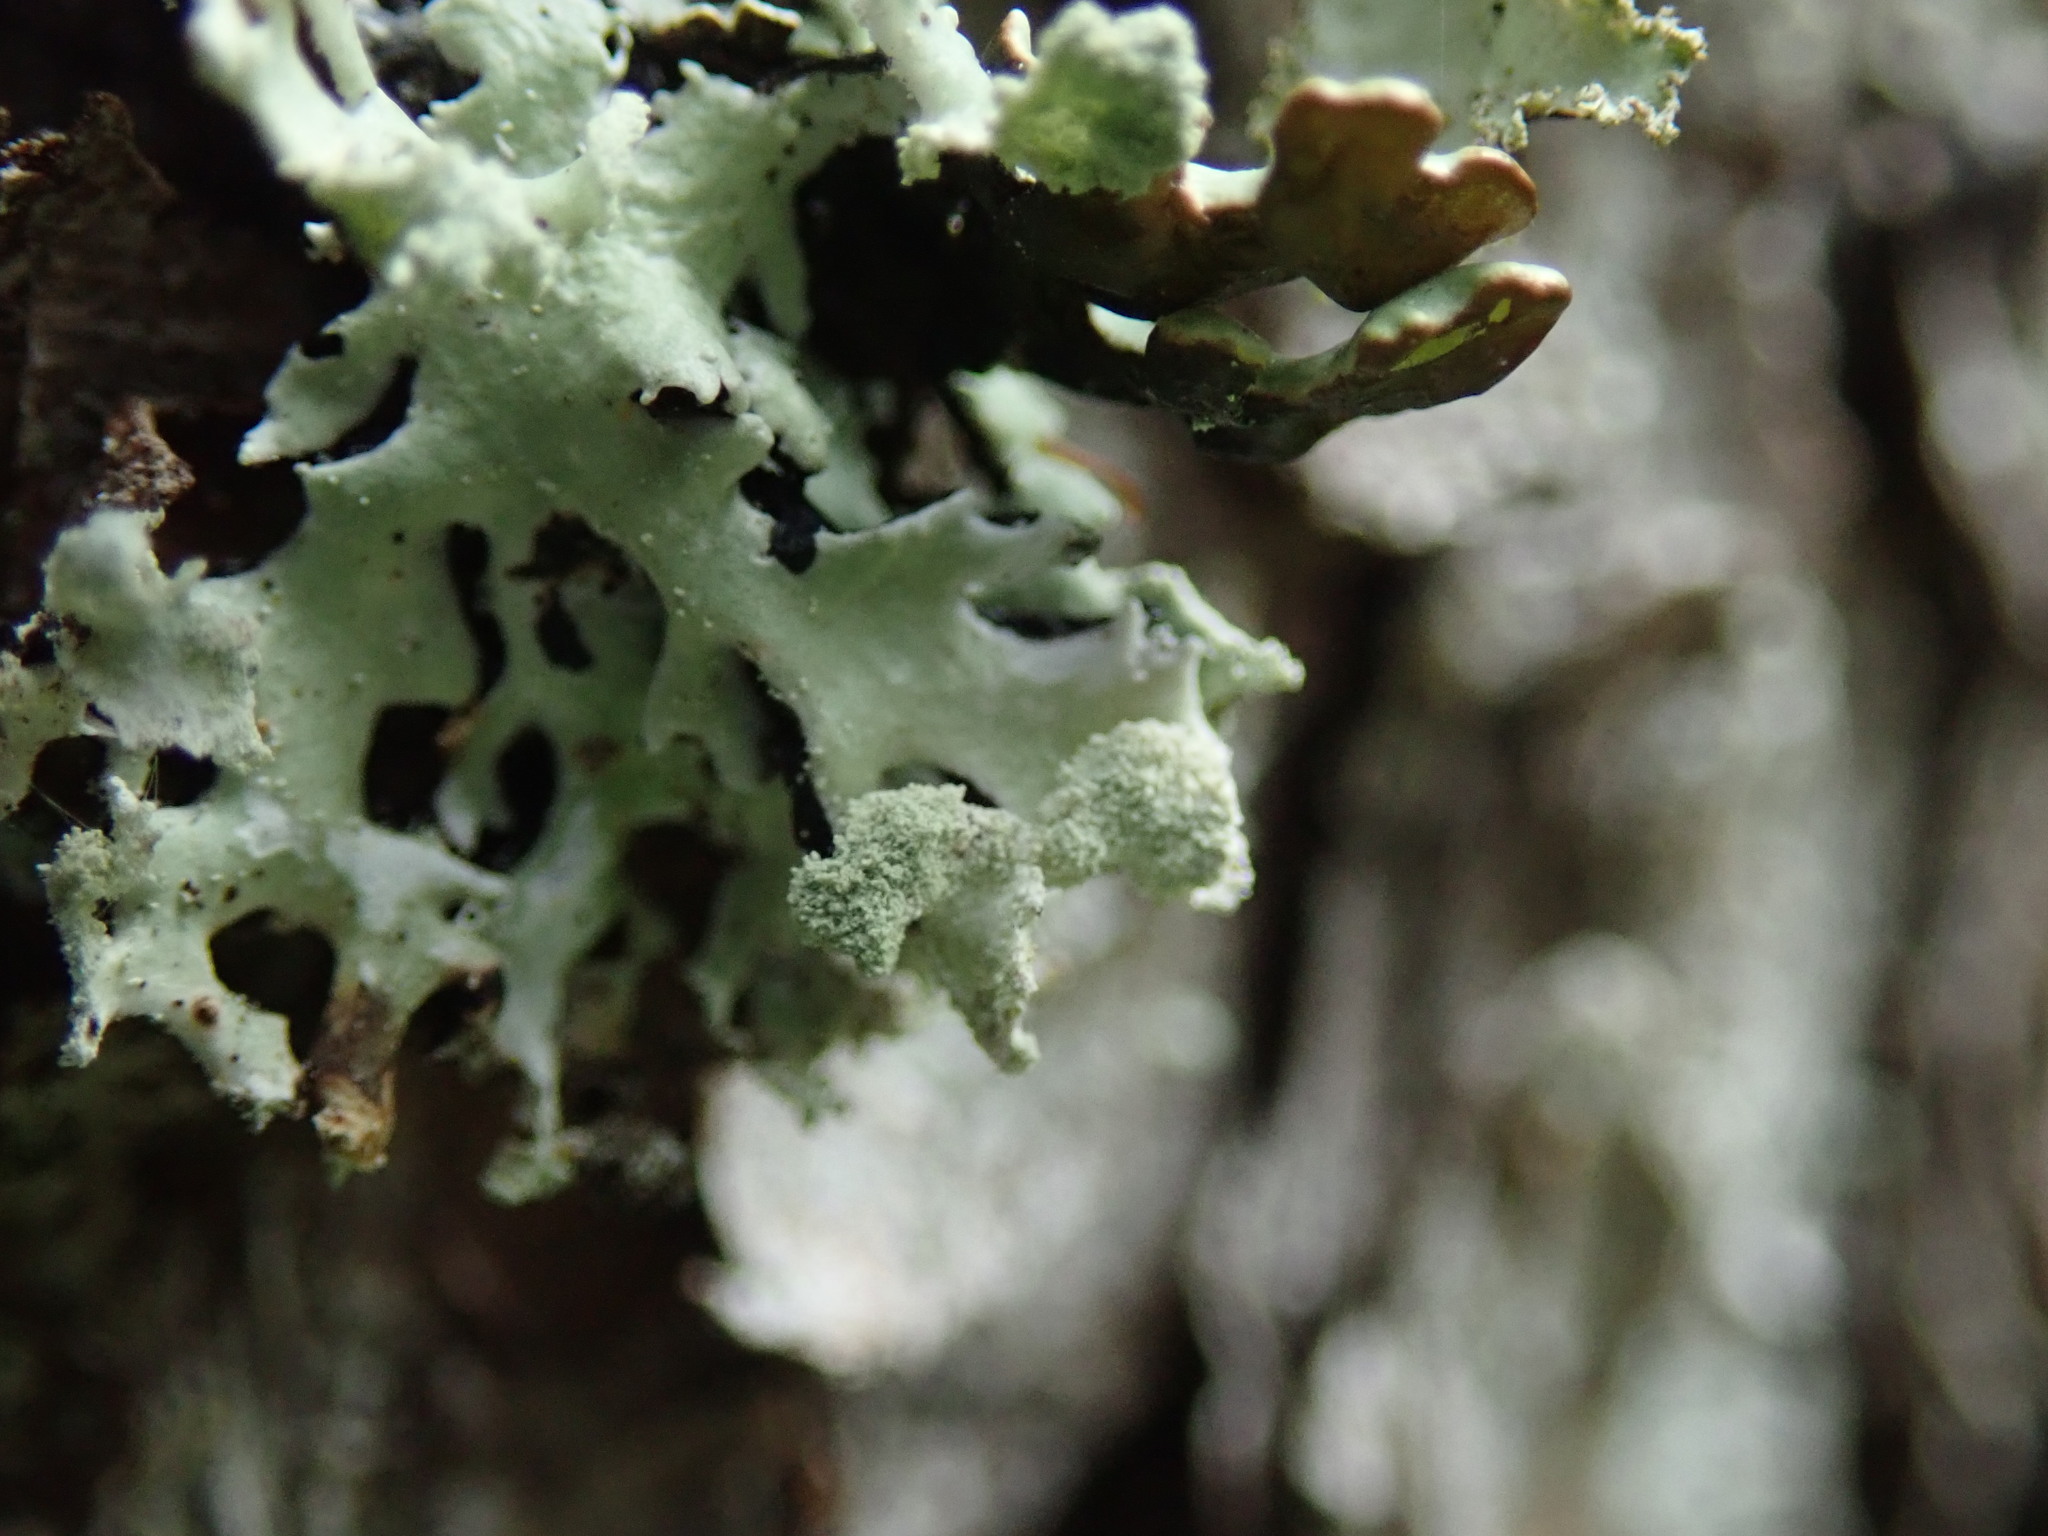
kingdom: Fungi
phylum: Ascomycota
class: Lecanoromycetes
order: Lecanorales
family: Parmeliaceae
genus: Hypogymnia
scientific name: Hypogymnia physodes
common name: Dark crottle
